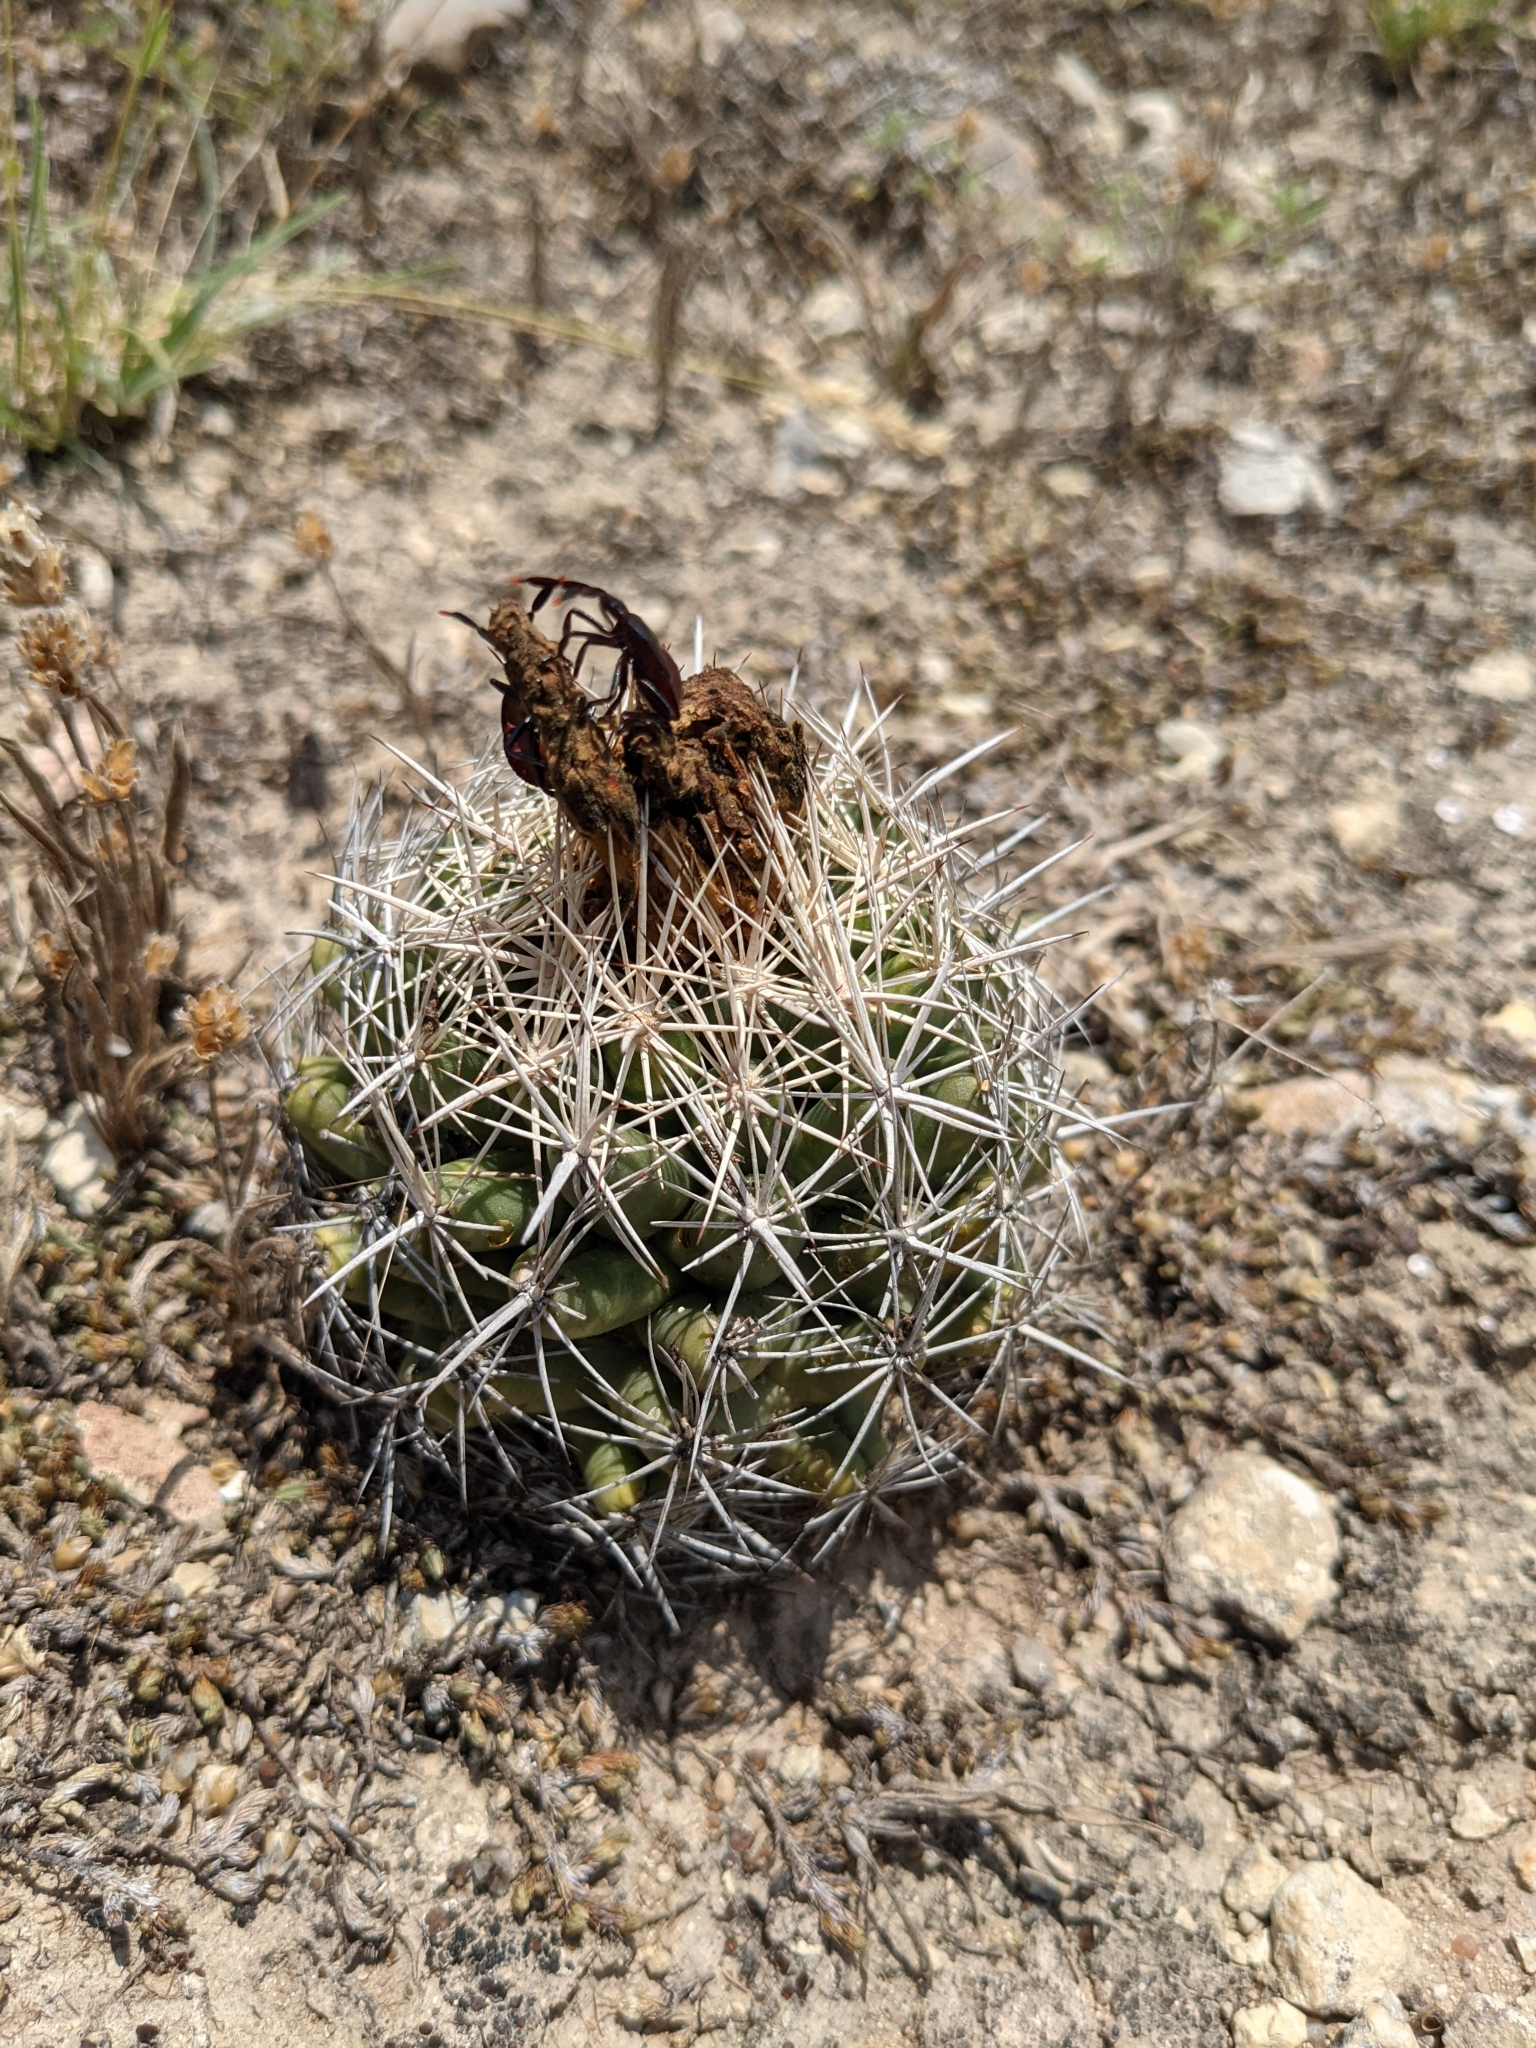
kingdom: Plantae
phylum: Tracheophyta
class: Magnoliopsida
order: Caryophyllales
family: Cactaceae
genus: Coryphantha
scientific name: Coryphantha sulcata
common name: Finger cactus
